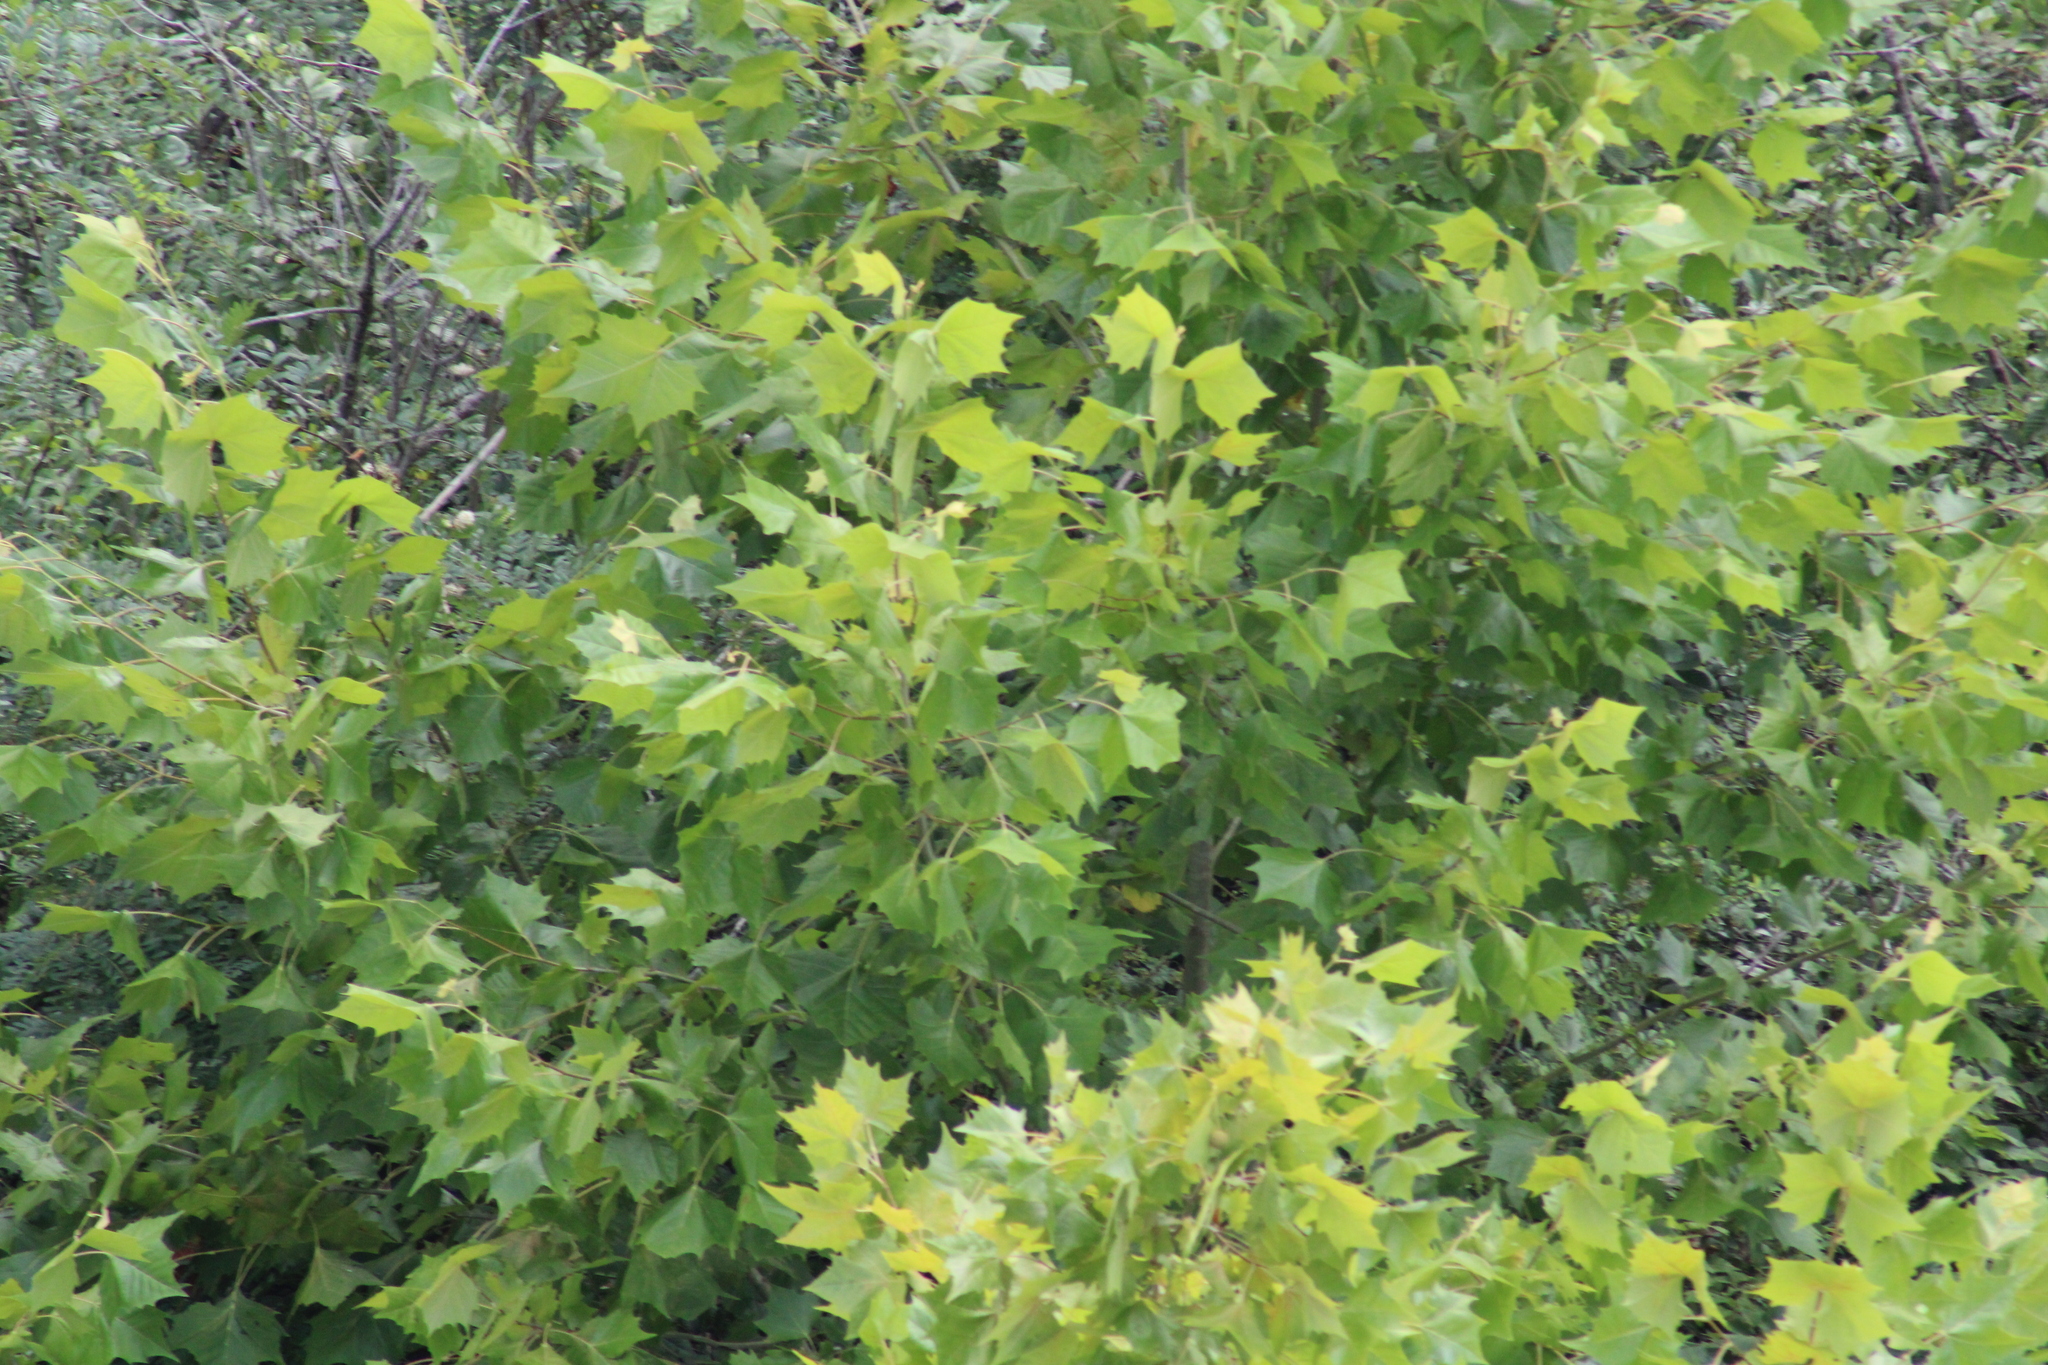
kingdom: Plantae
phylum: Tracheophyta
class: Magnoliopsida
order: Proteales
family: Platanaceae
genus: Platanus
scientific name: Platanus occidentalis
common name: American sycamore
